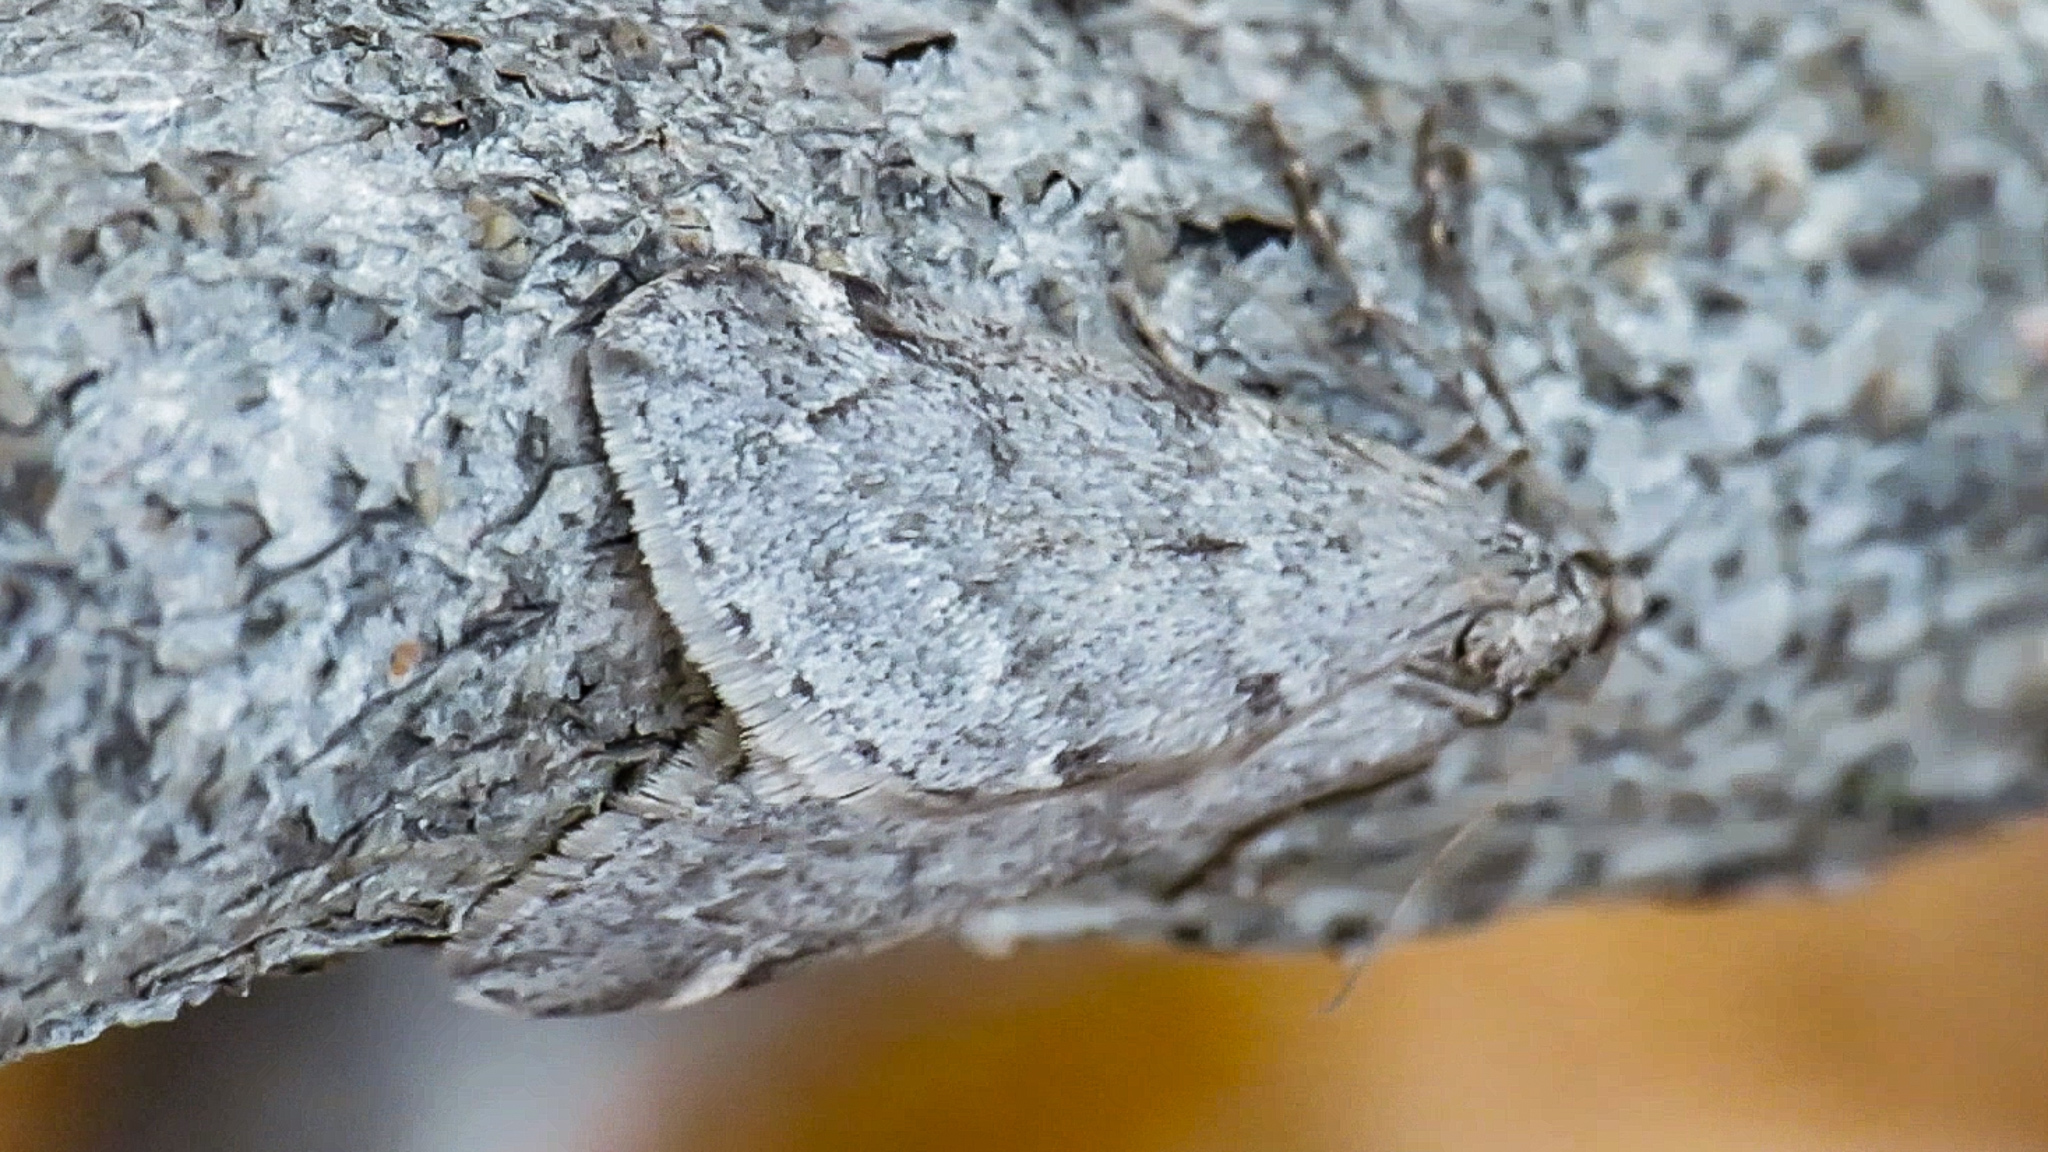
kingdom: Animalia
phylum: Arthropoda
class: Insecta
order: Lepidoptera
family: Geometridae
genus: Alsophila
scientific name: Alsophila pometaria
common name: Fall cankerworm
